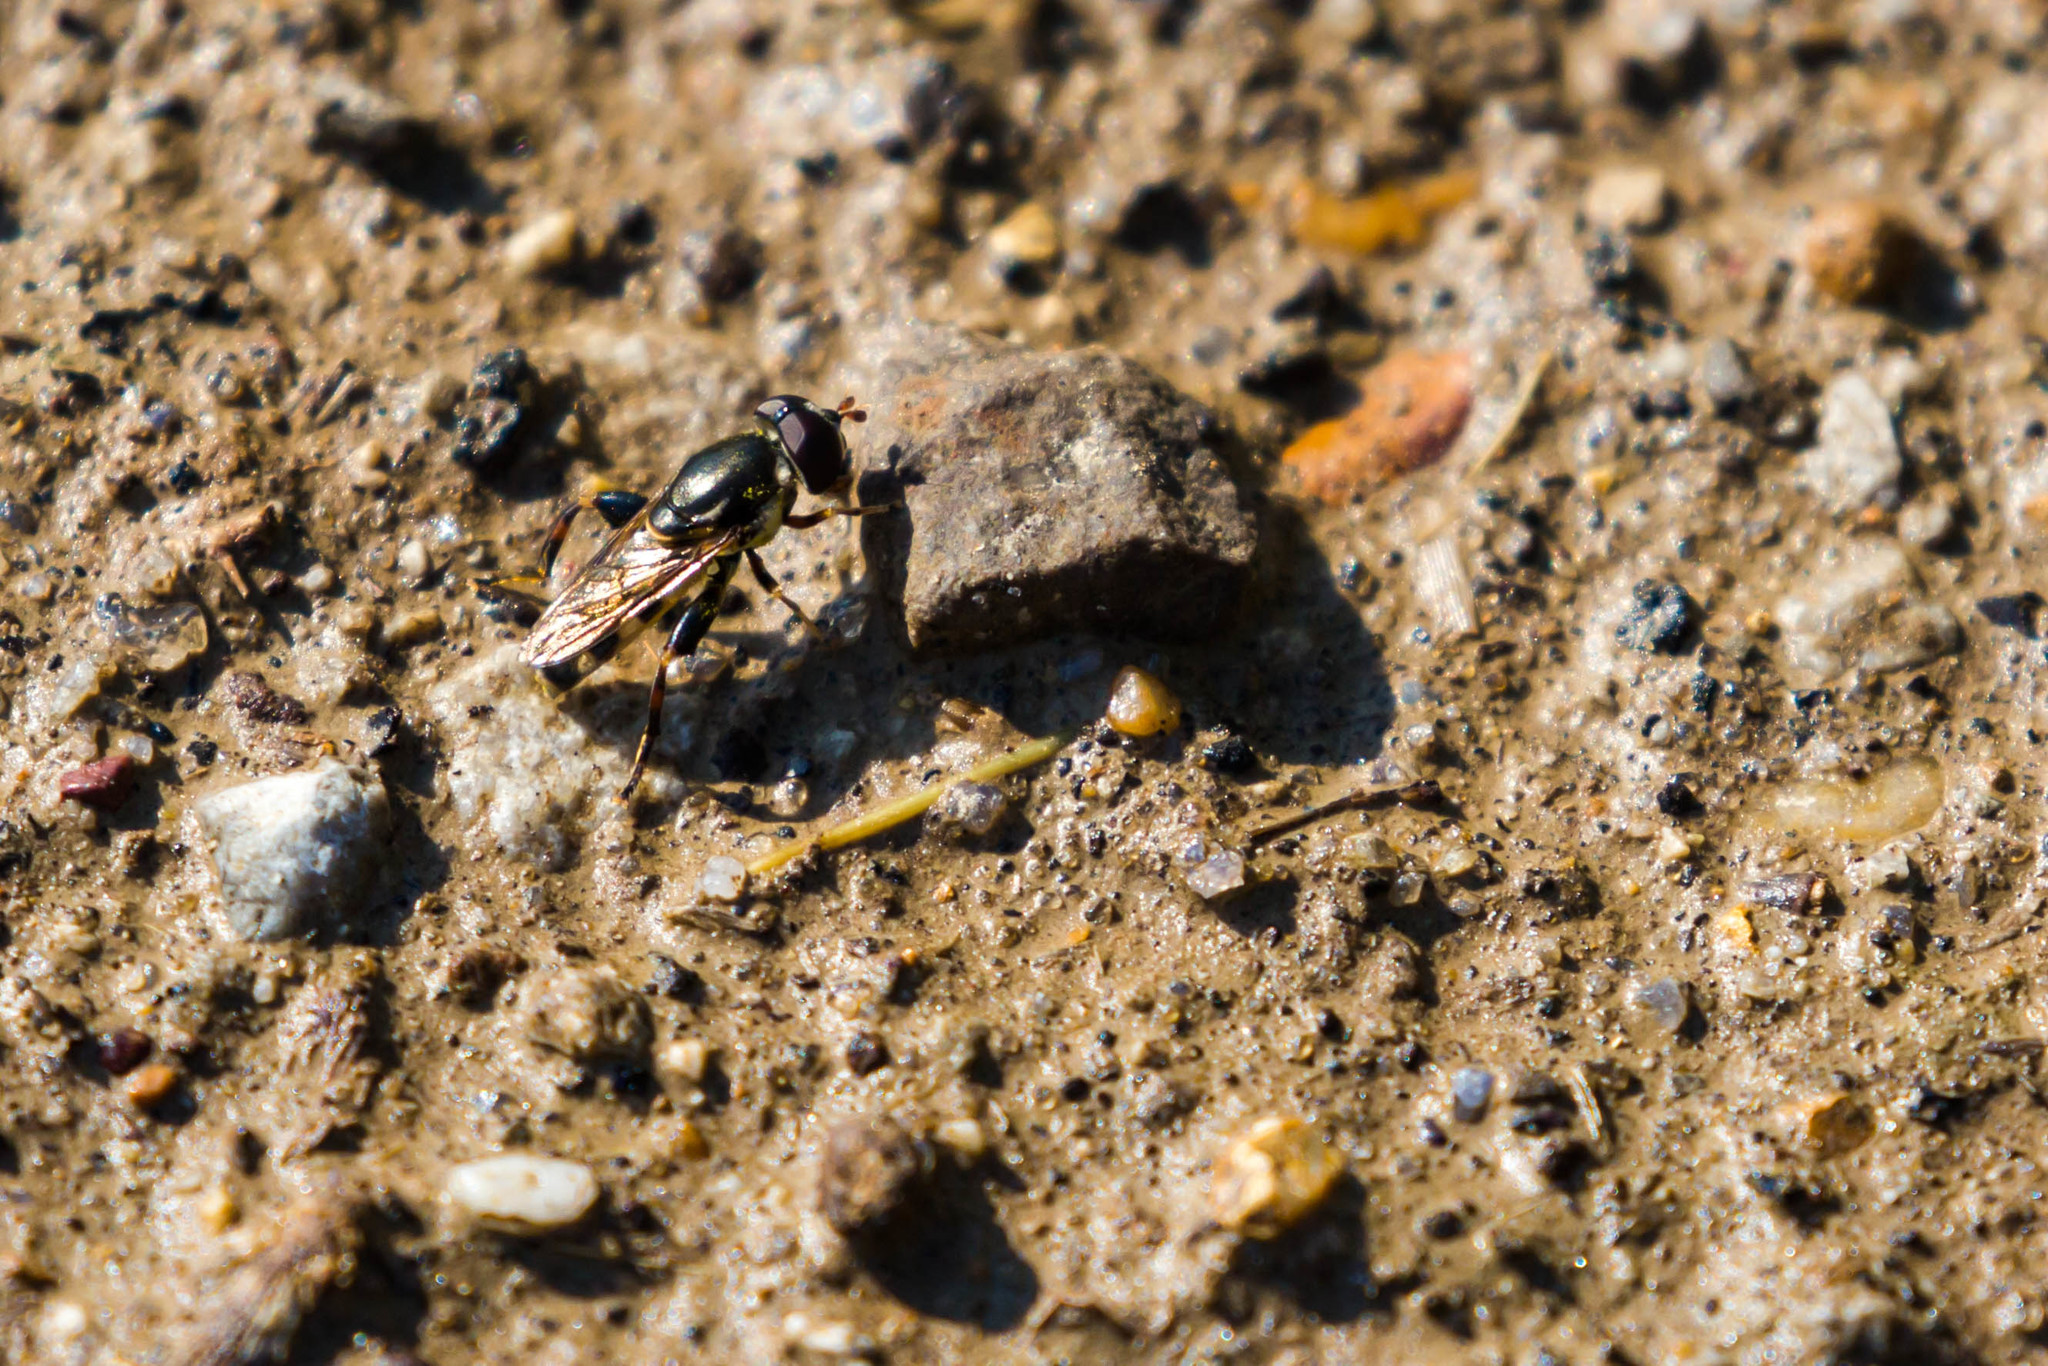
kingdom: Animalia
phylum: Arthropoda
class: Insecta
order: Diptera
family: Syrphidae
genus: Tropidia
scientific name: Tropidia albistylum
